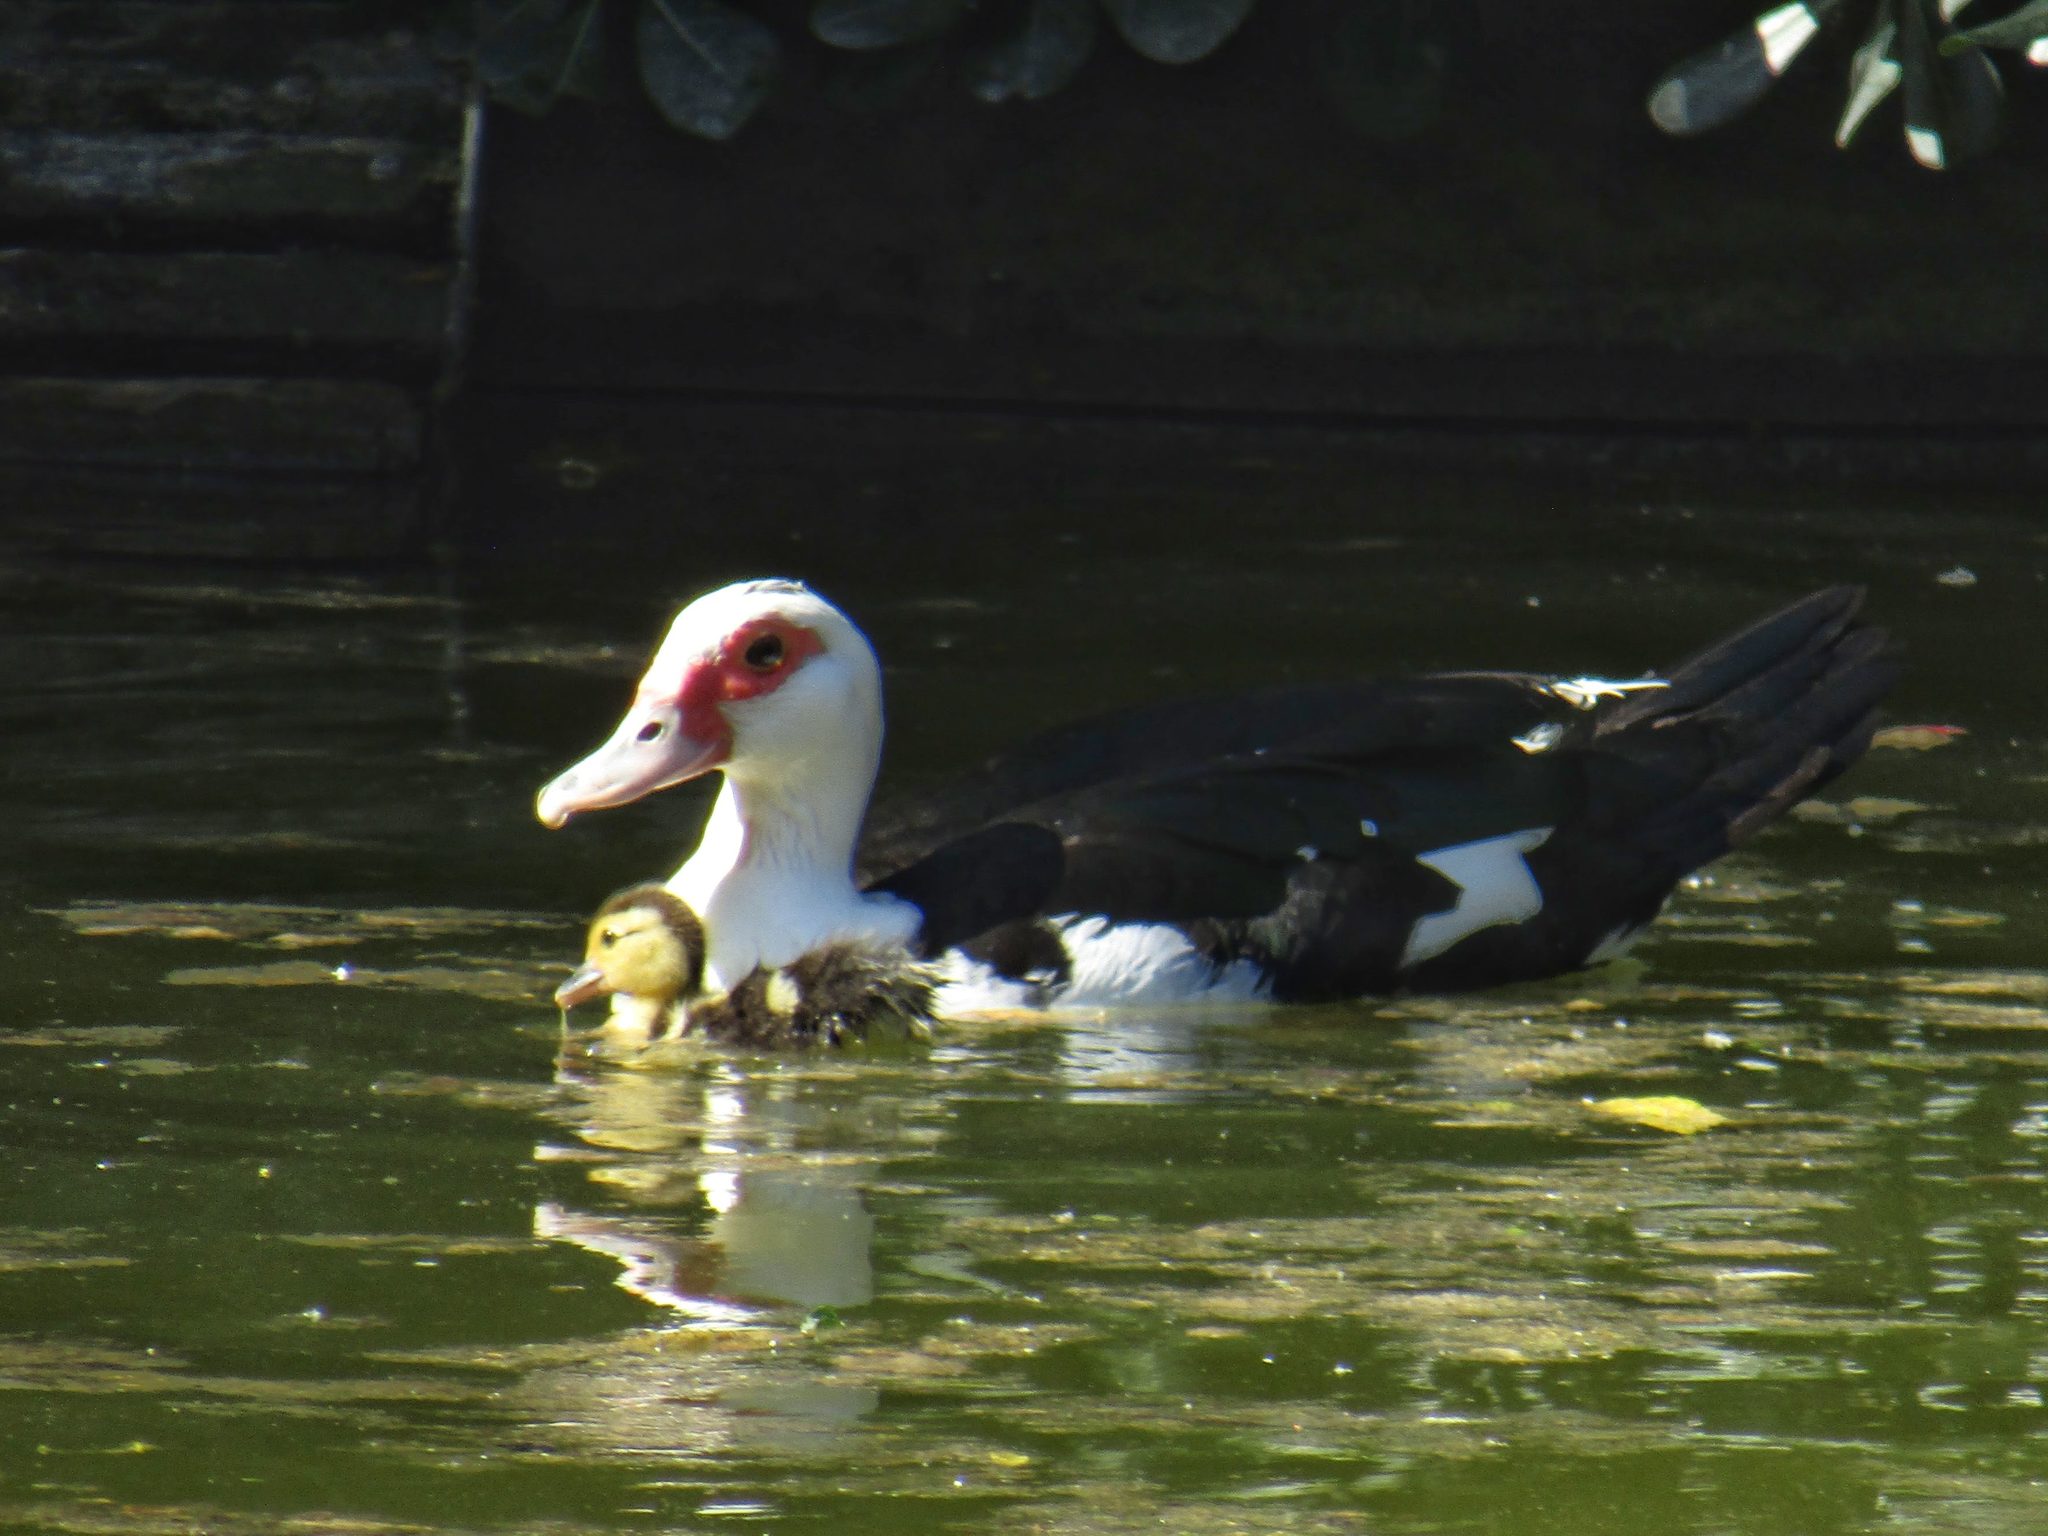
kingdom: Animalia
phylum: Chordata
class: Aves
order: Anseriformes
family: Anatidae
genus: Cairina
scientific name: Cairina moschata
